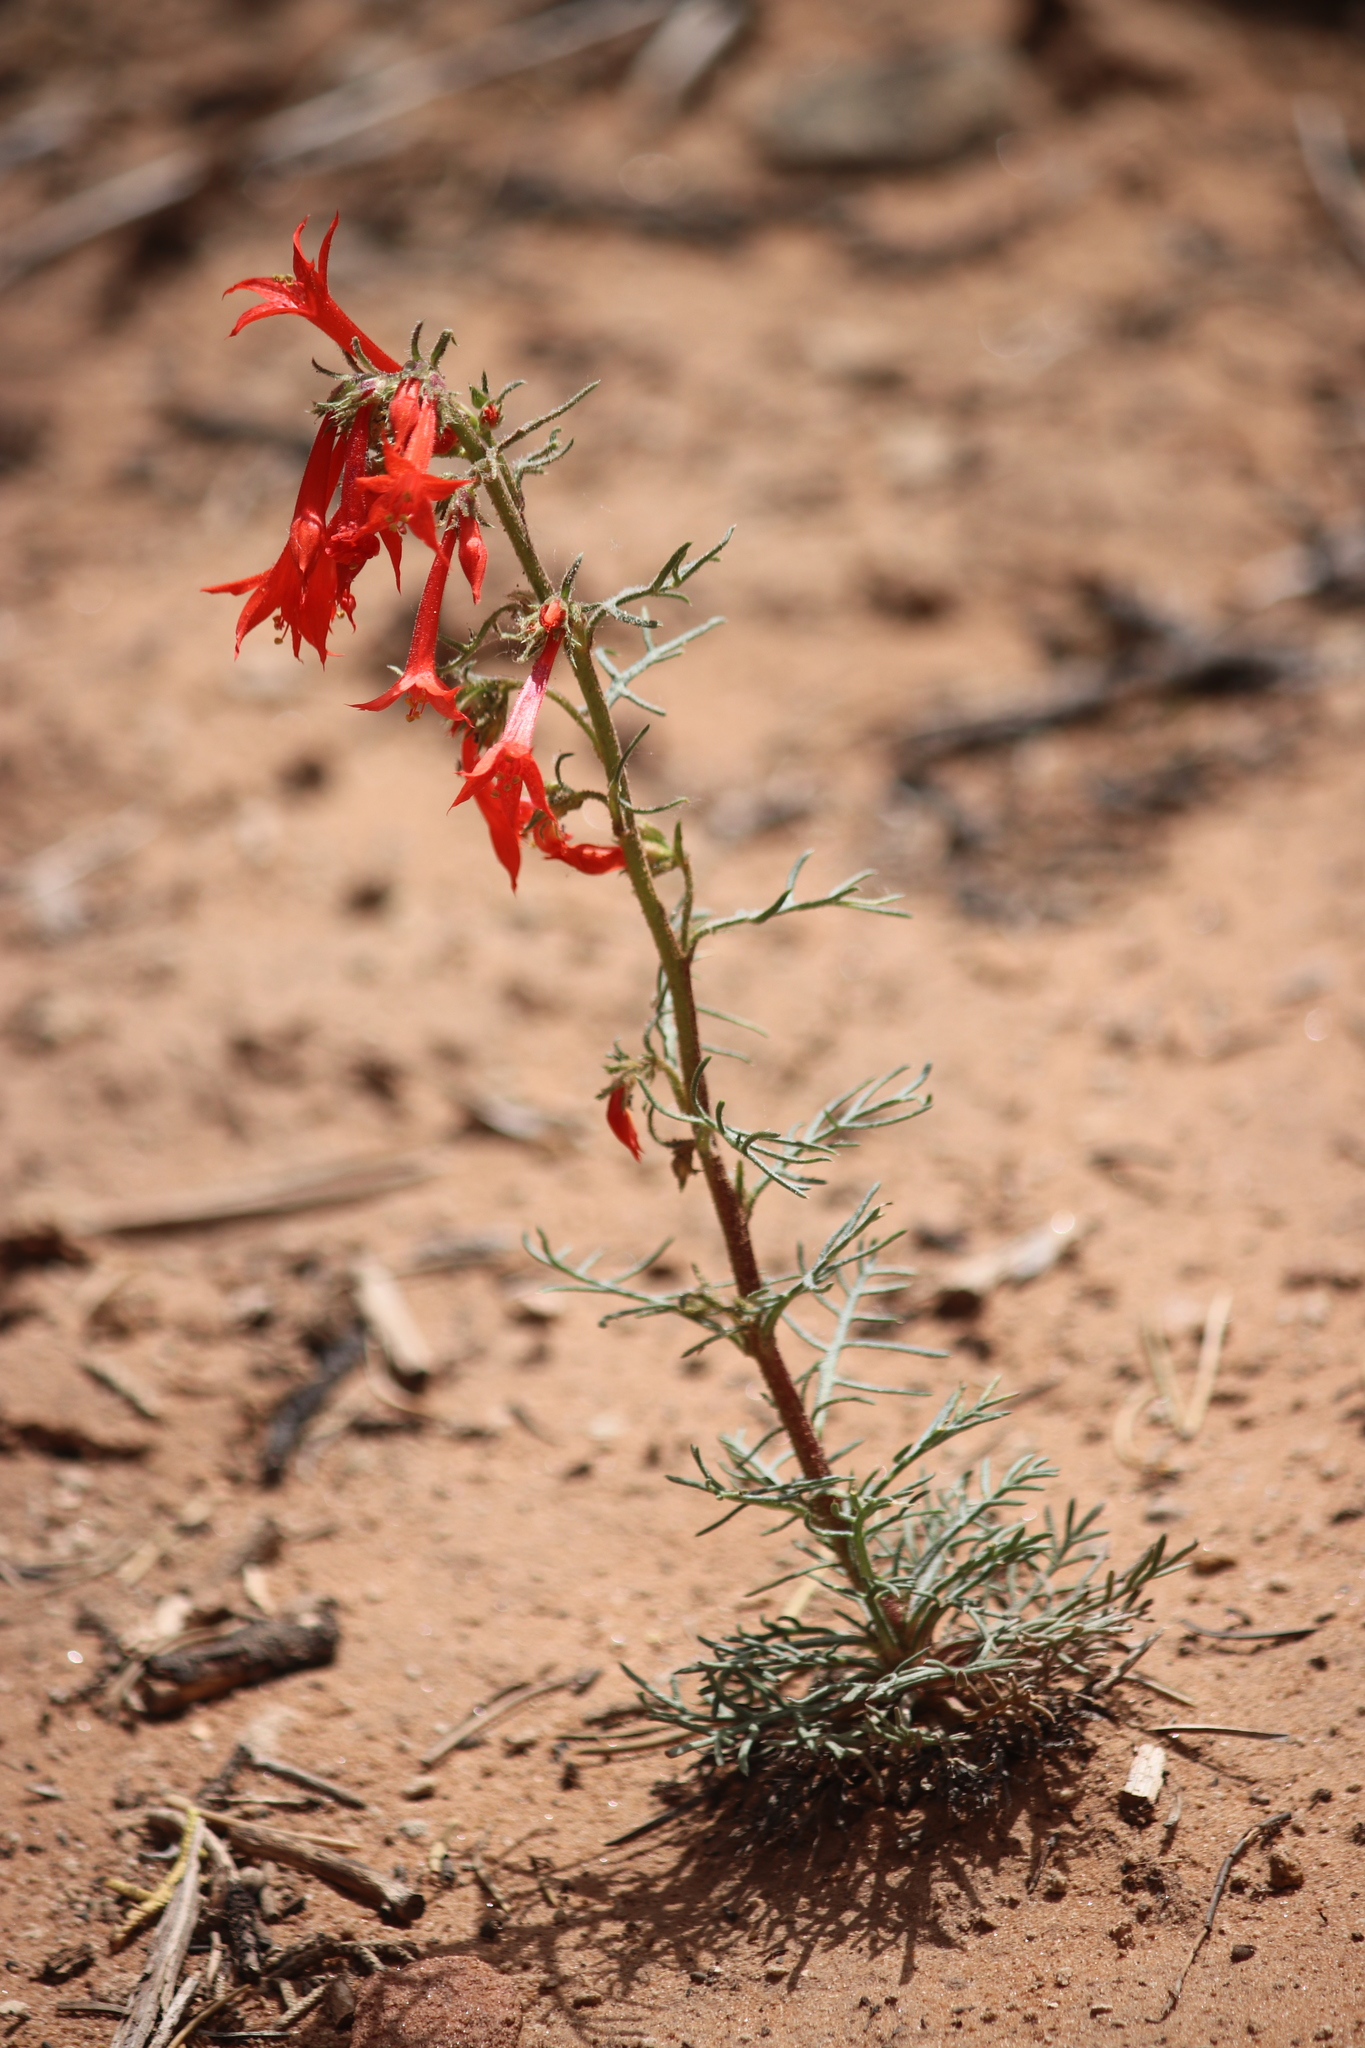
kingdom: Plantae
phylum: Tracheophyta
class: Magnoliopsida
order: Ericales
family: Polemoniaceae
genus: Ipomopsis
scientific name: Ipomopsis aggregata
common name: Scarlet gilia
